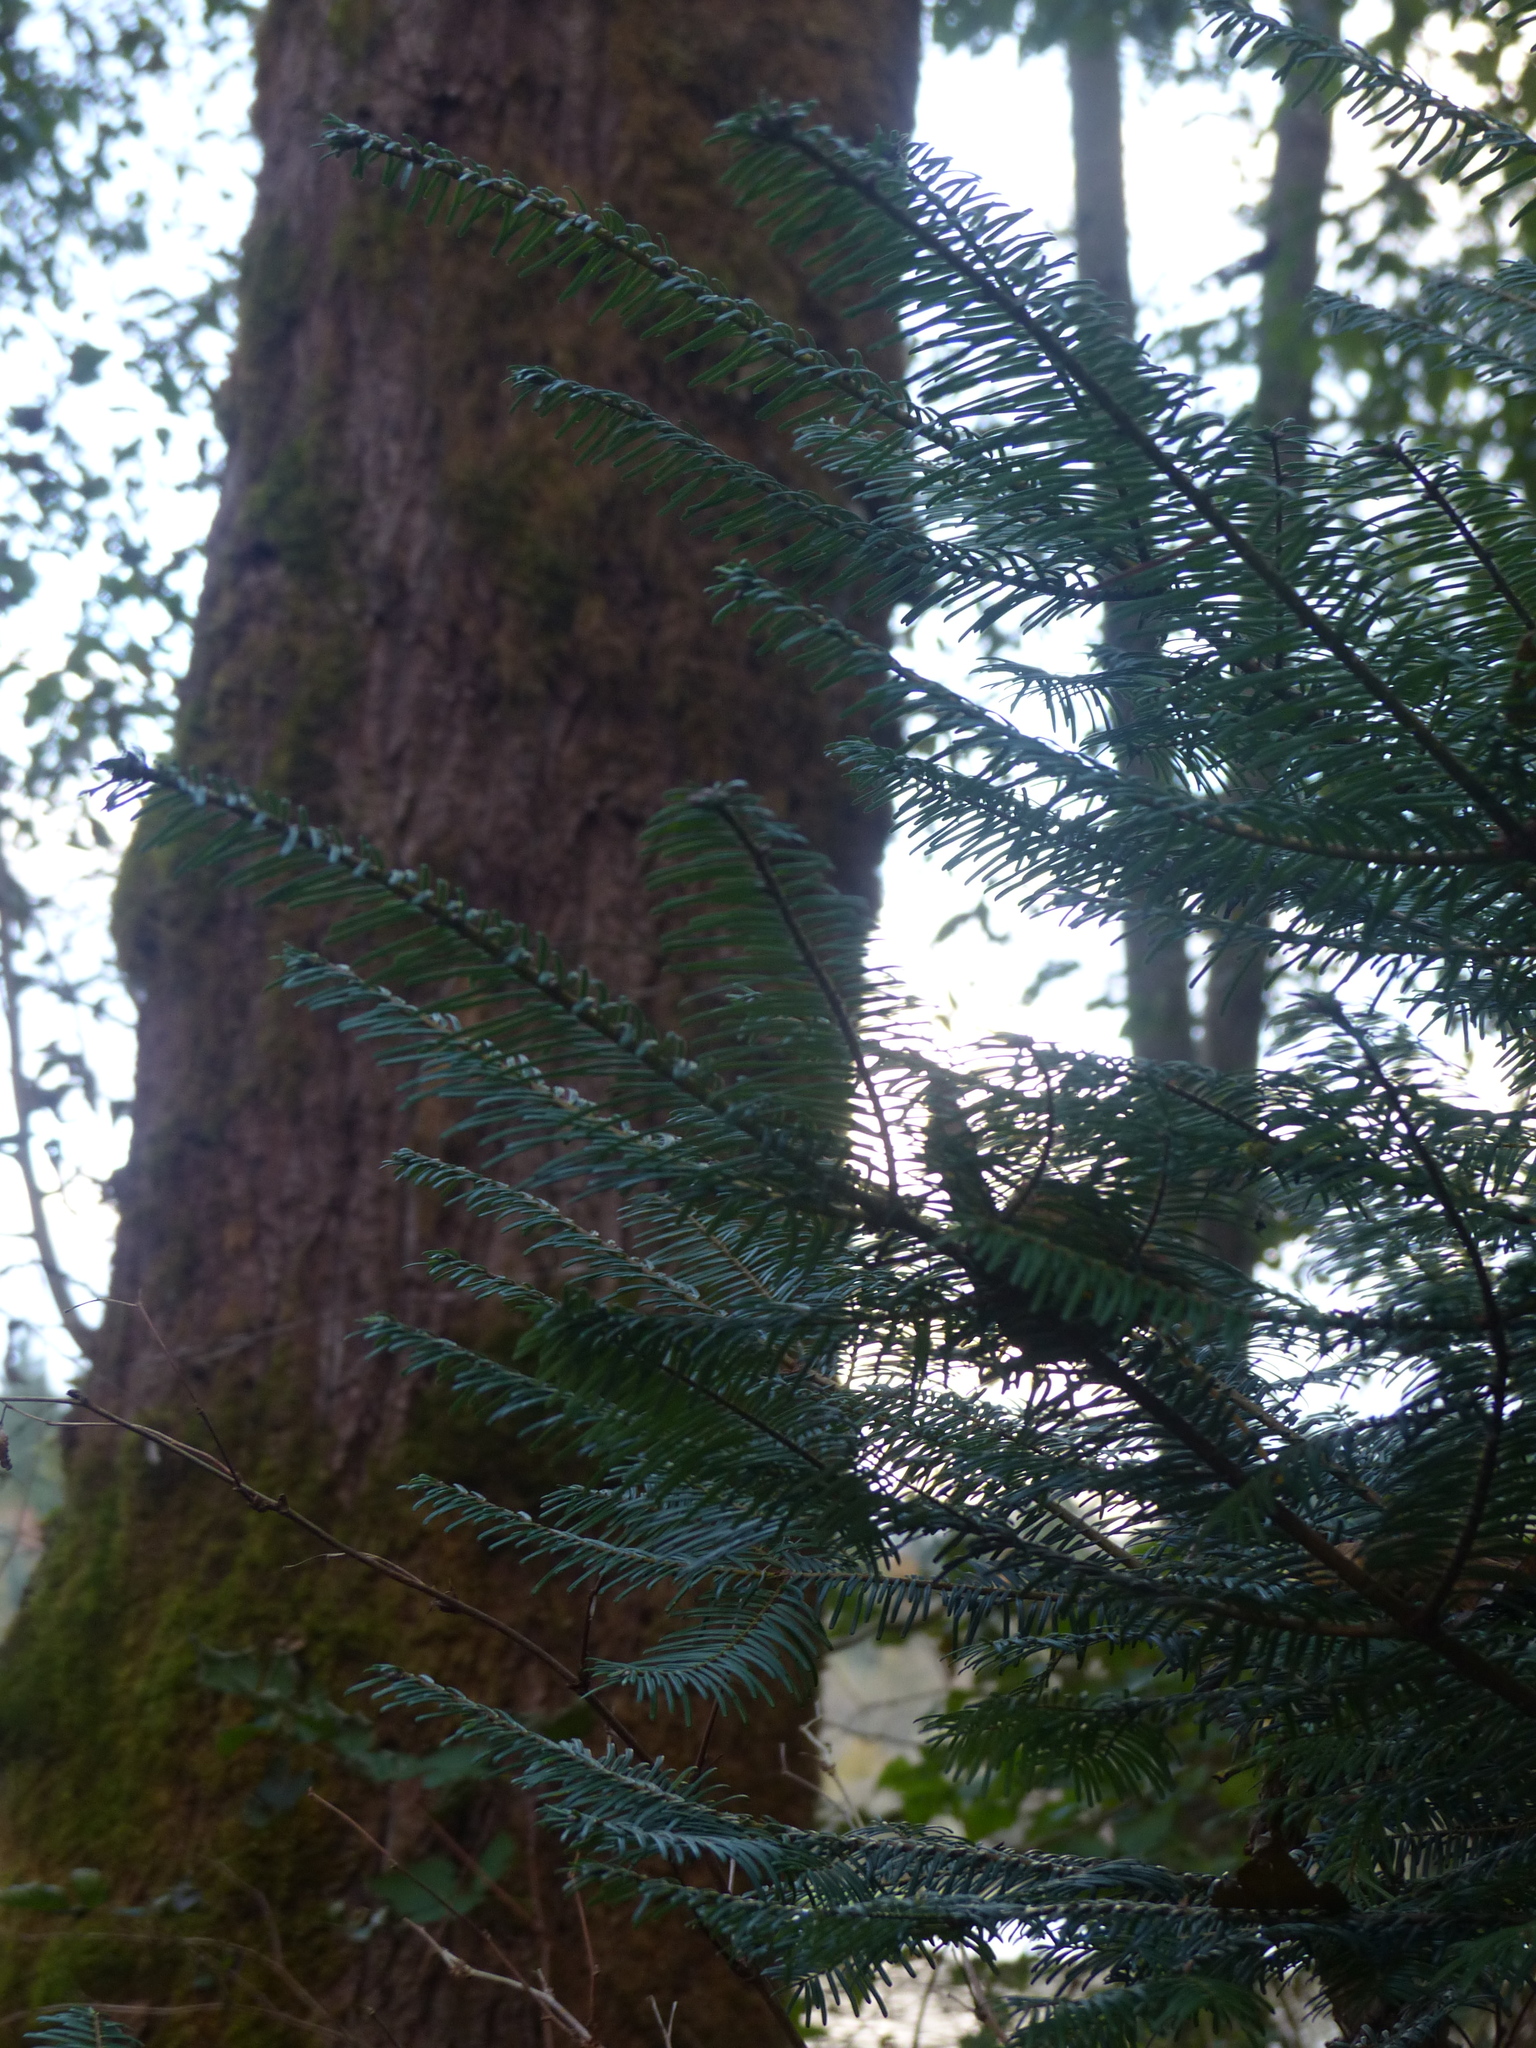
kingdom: Plantae
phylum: Tracheophyta
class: Pinopsida
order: Pinales
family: Pinaceae
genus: Abies
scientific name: Abies grandis
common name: Giant fir
